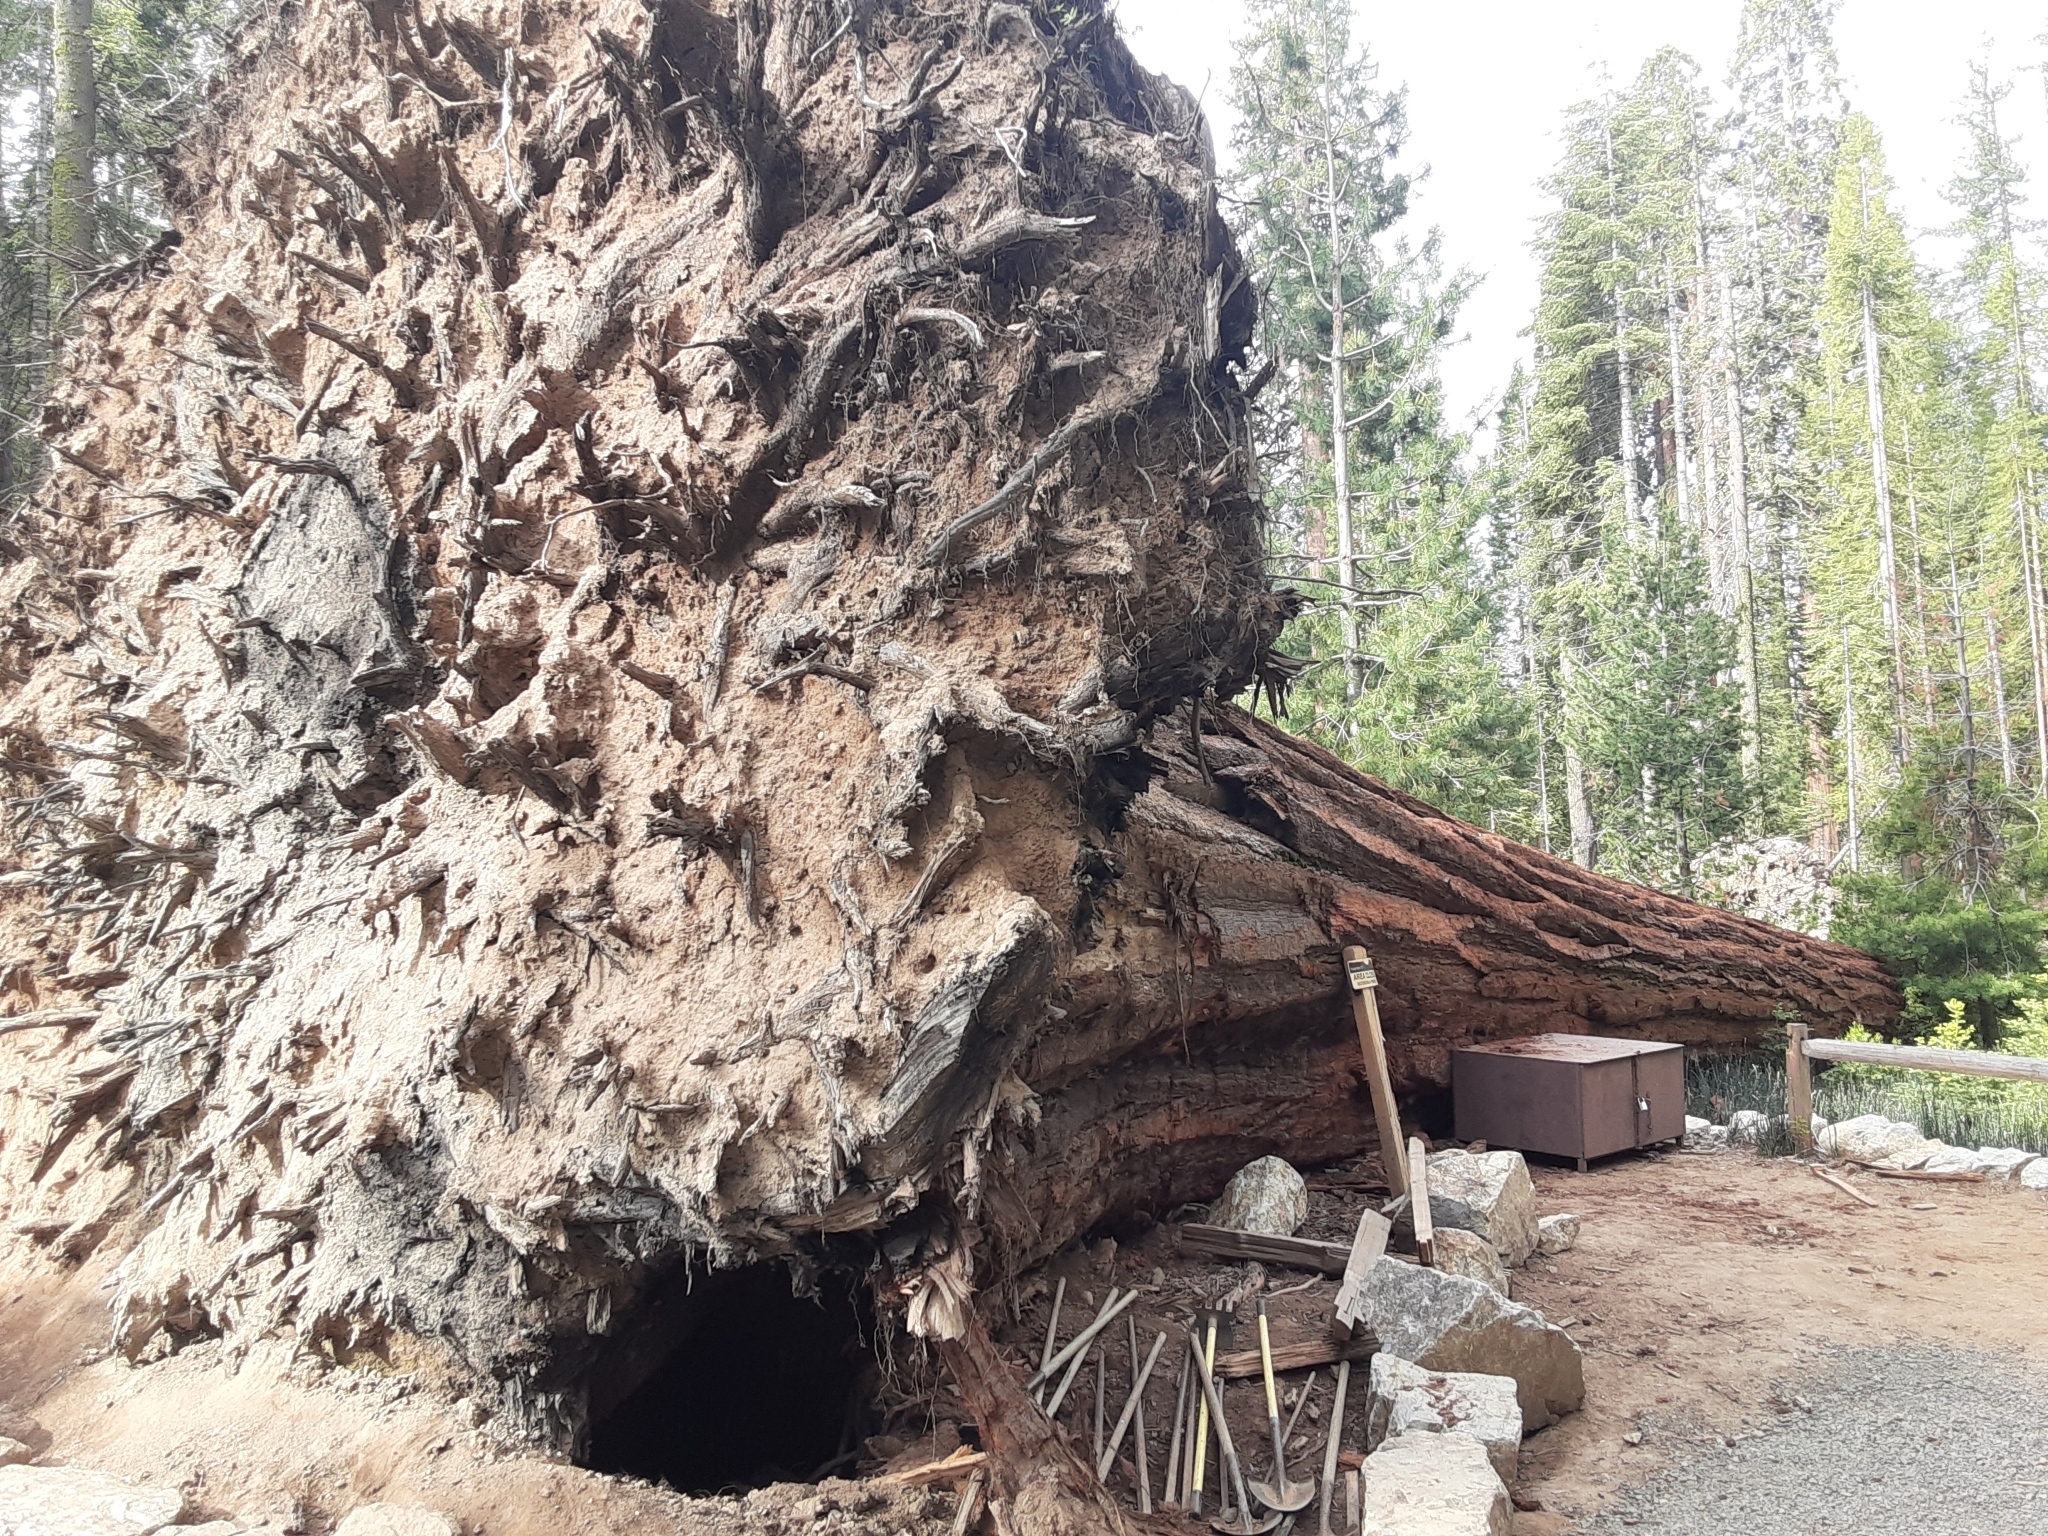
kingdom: Plantae
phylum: Tracheophyta
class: Pinopsida
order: Pinales
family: Cupressaceae
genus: Sequoiadendron
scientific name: Sequoiadendron giganteum
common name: Wellingtonia
